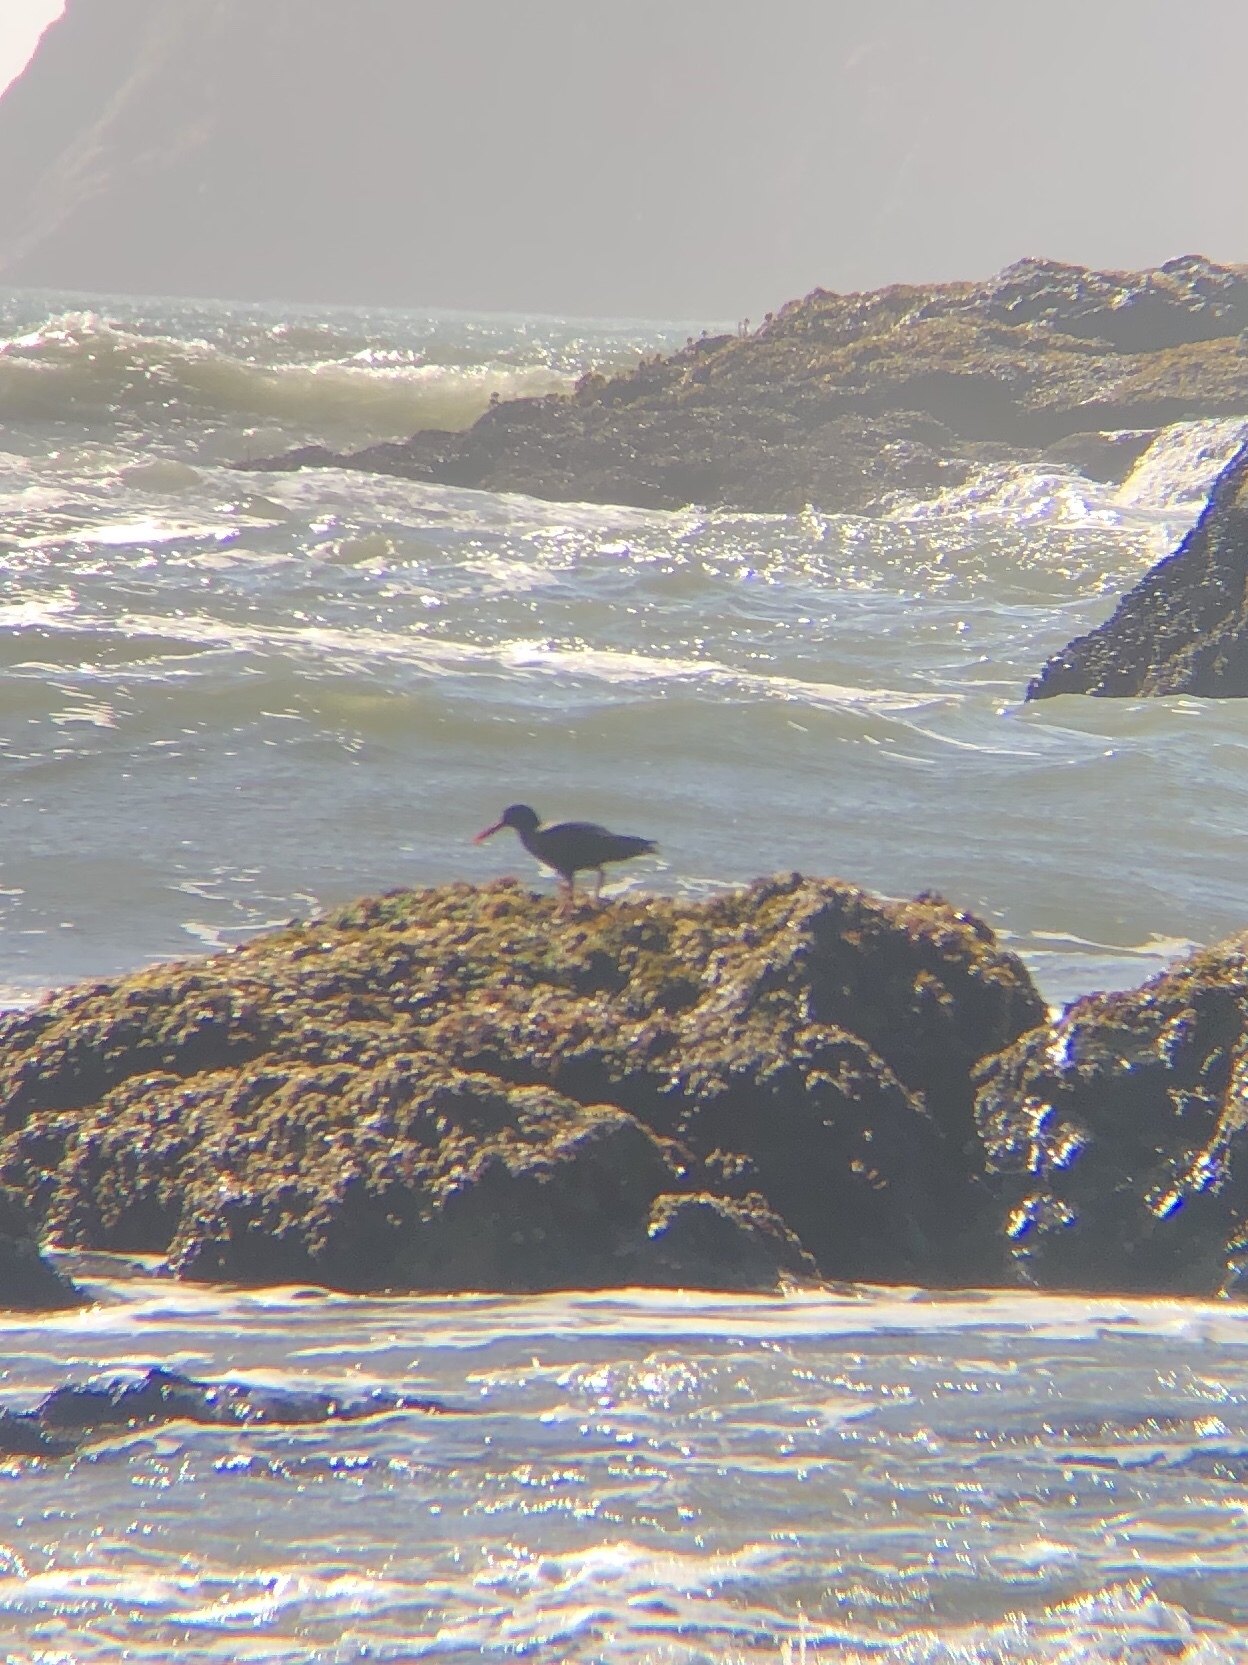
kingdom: Animalia
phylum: Chordata
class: Aves
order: Charadriiformes
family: Haematopodidae
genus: Haematopus
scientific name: Haematopus bachmani
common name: Black oystercatcher
